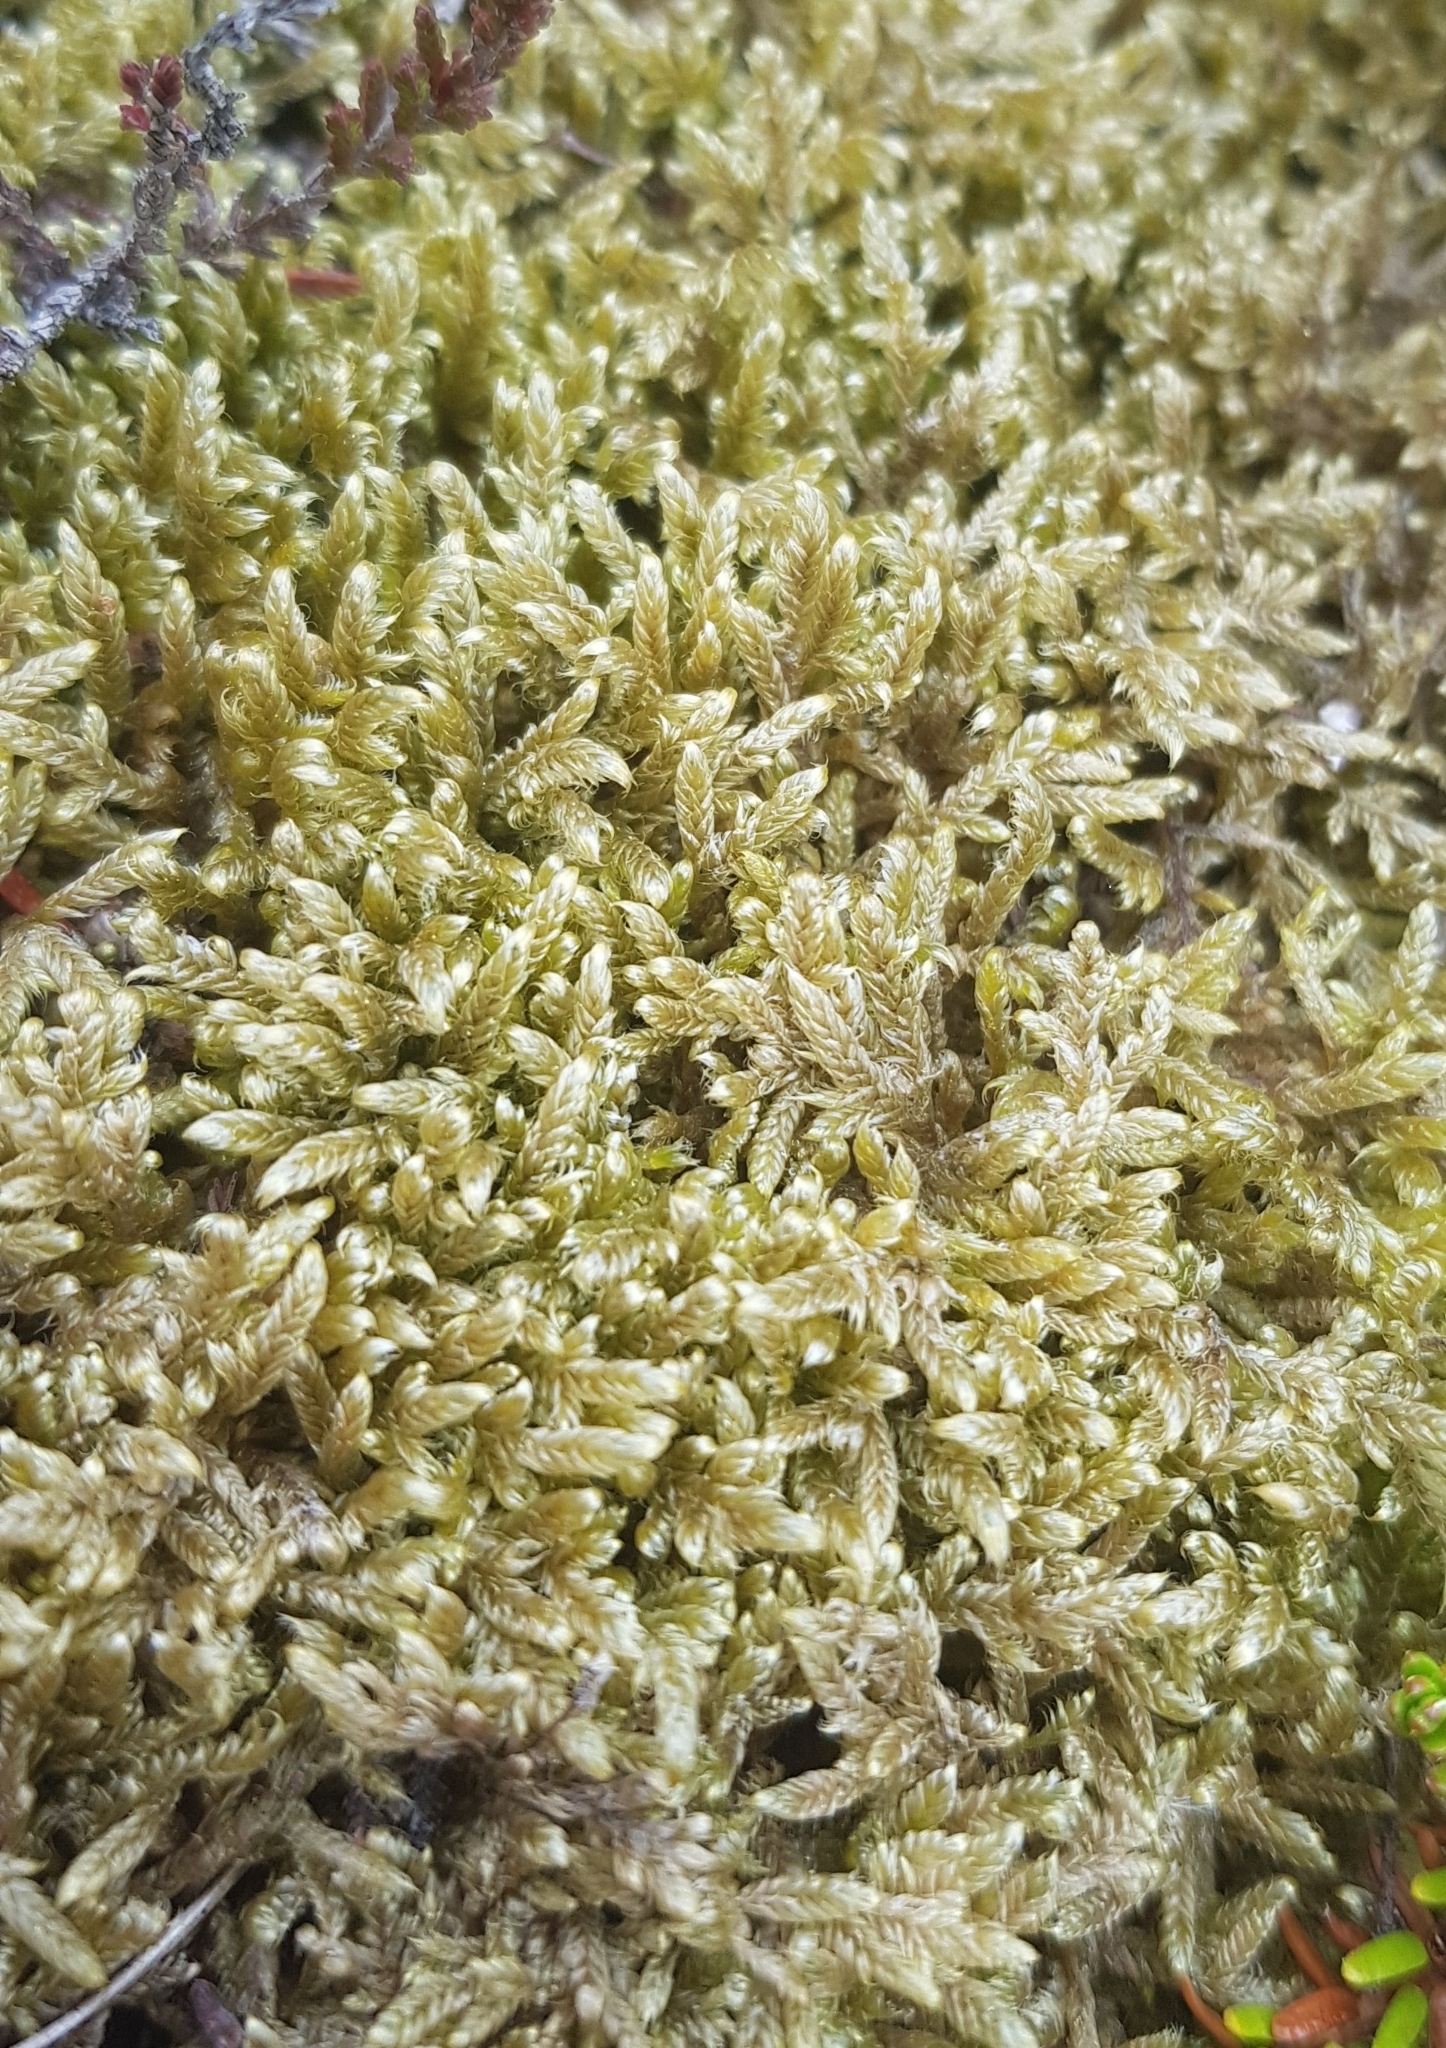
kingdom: Plantae
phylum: Bryophyta
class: Bryopsida
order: Hypnales
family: Hypnaceae
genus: Hypnum
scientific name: Hypnum jutlandicum
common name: Heath plait-moss
